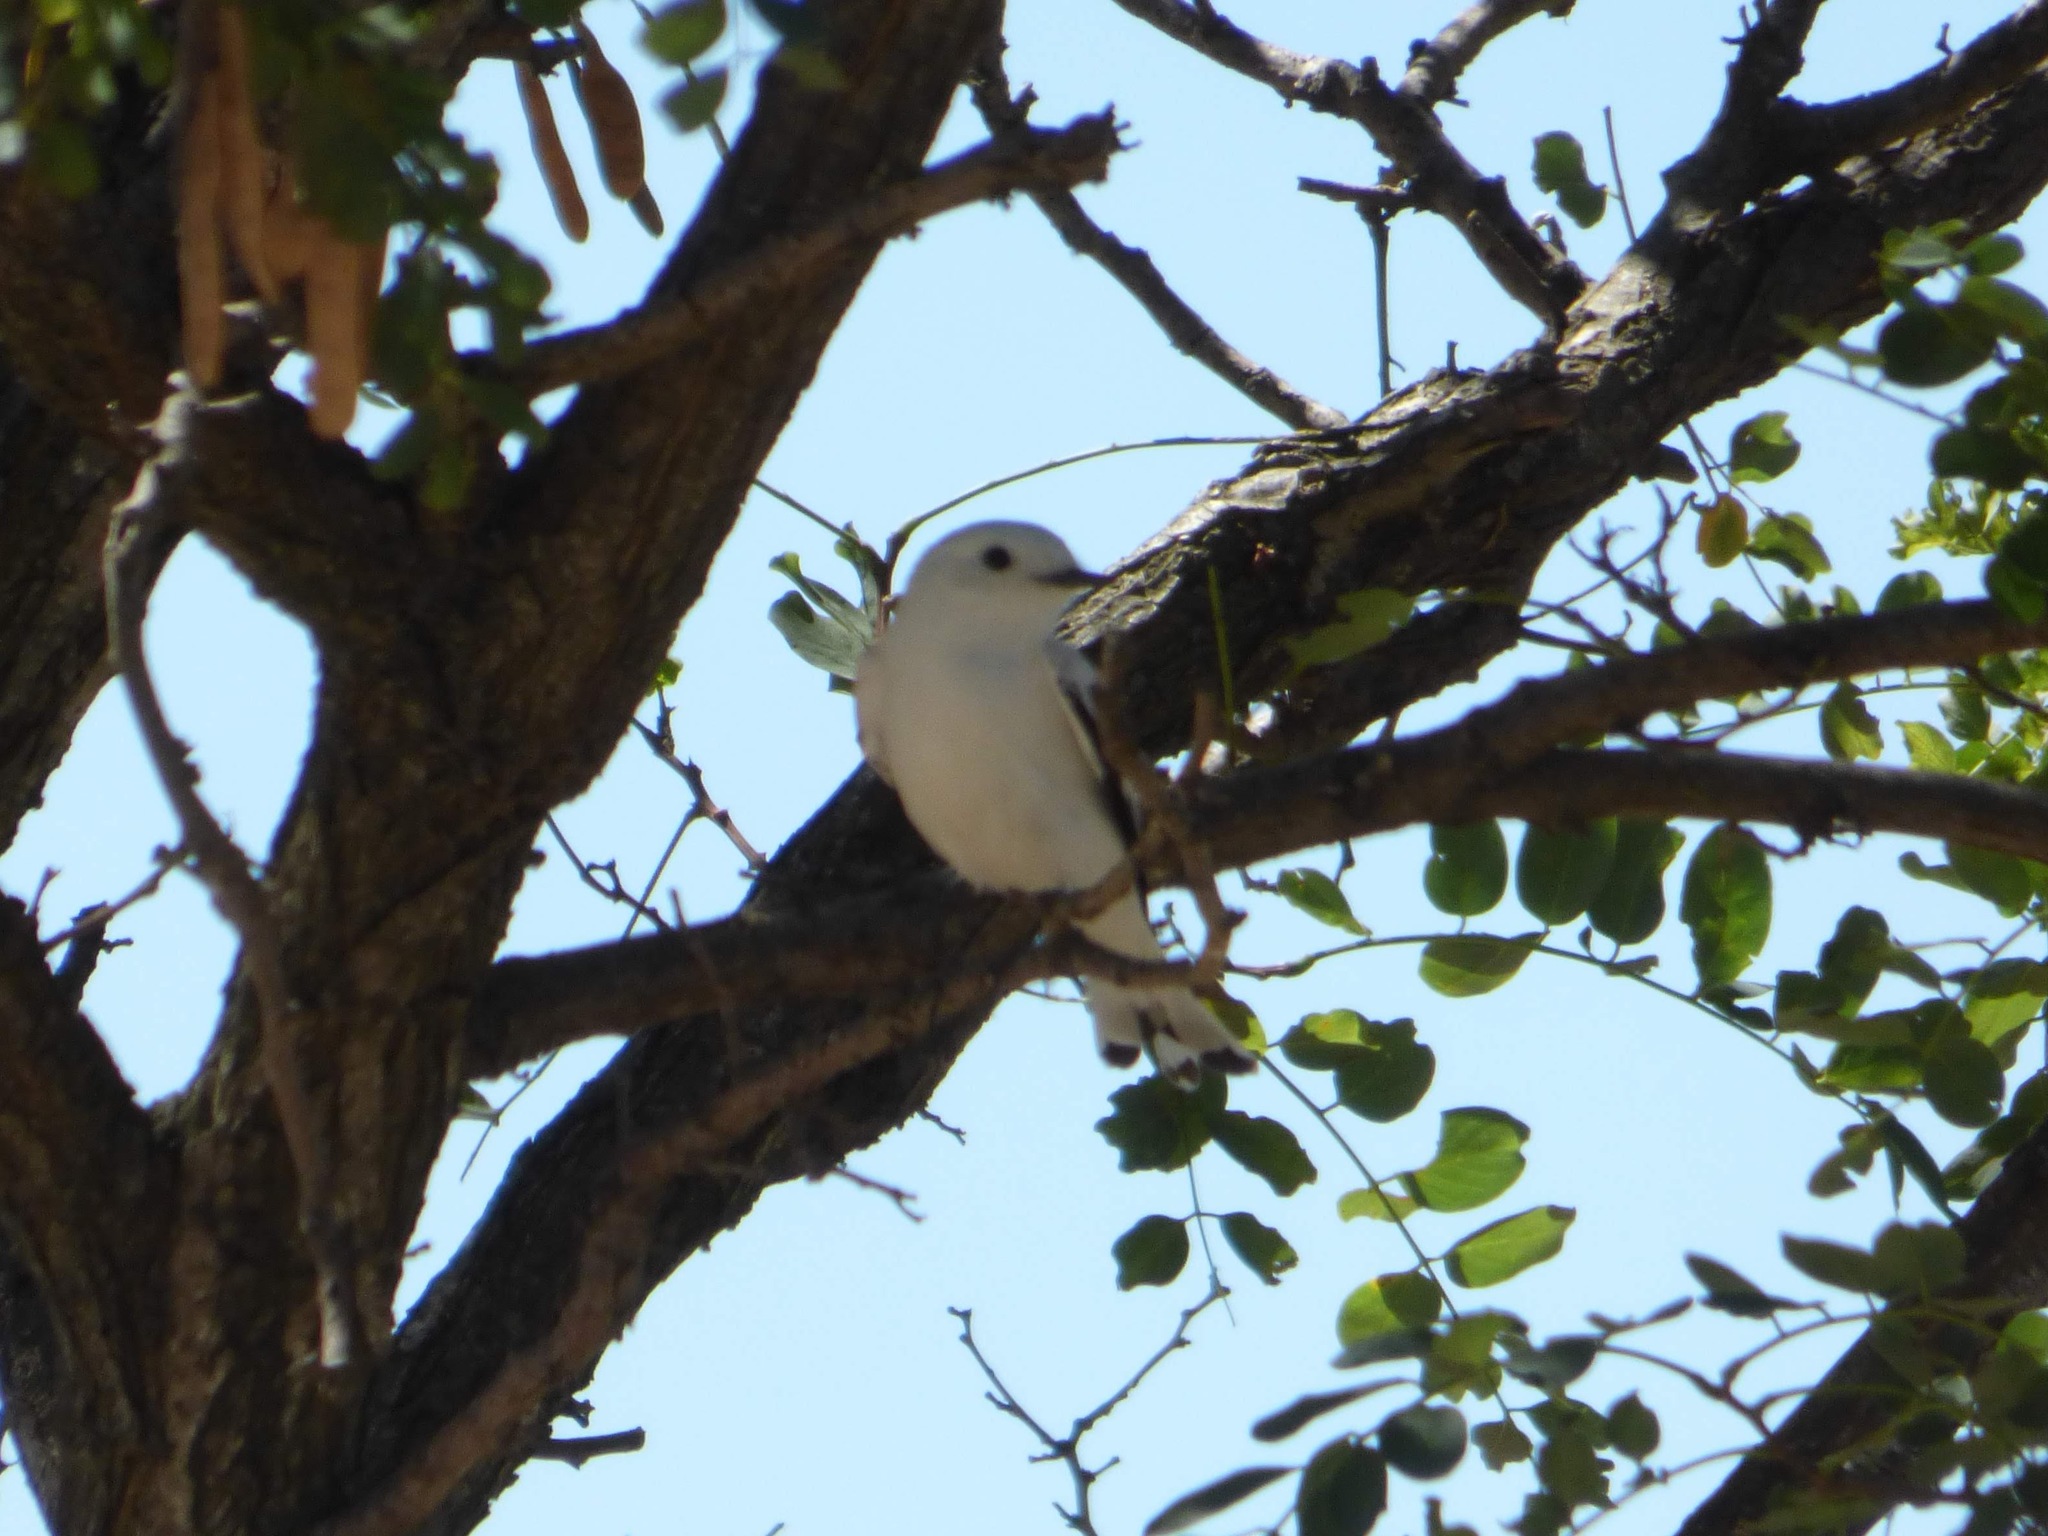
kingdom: Animalia
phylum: Chordata
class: Aves
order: Passeriformes
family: Tyrannidae
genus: Xolmis
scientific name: Xolmis irupero
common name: White monjita
